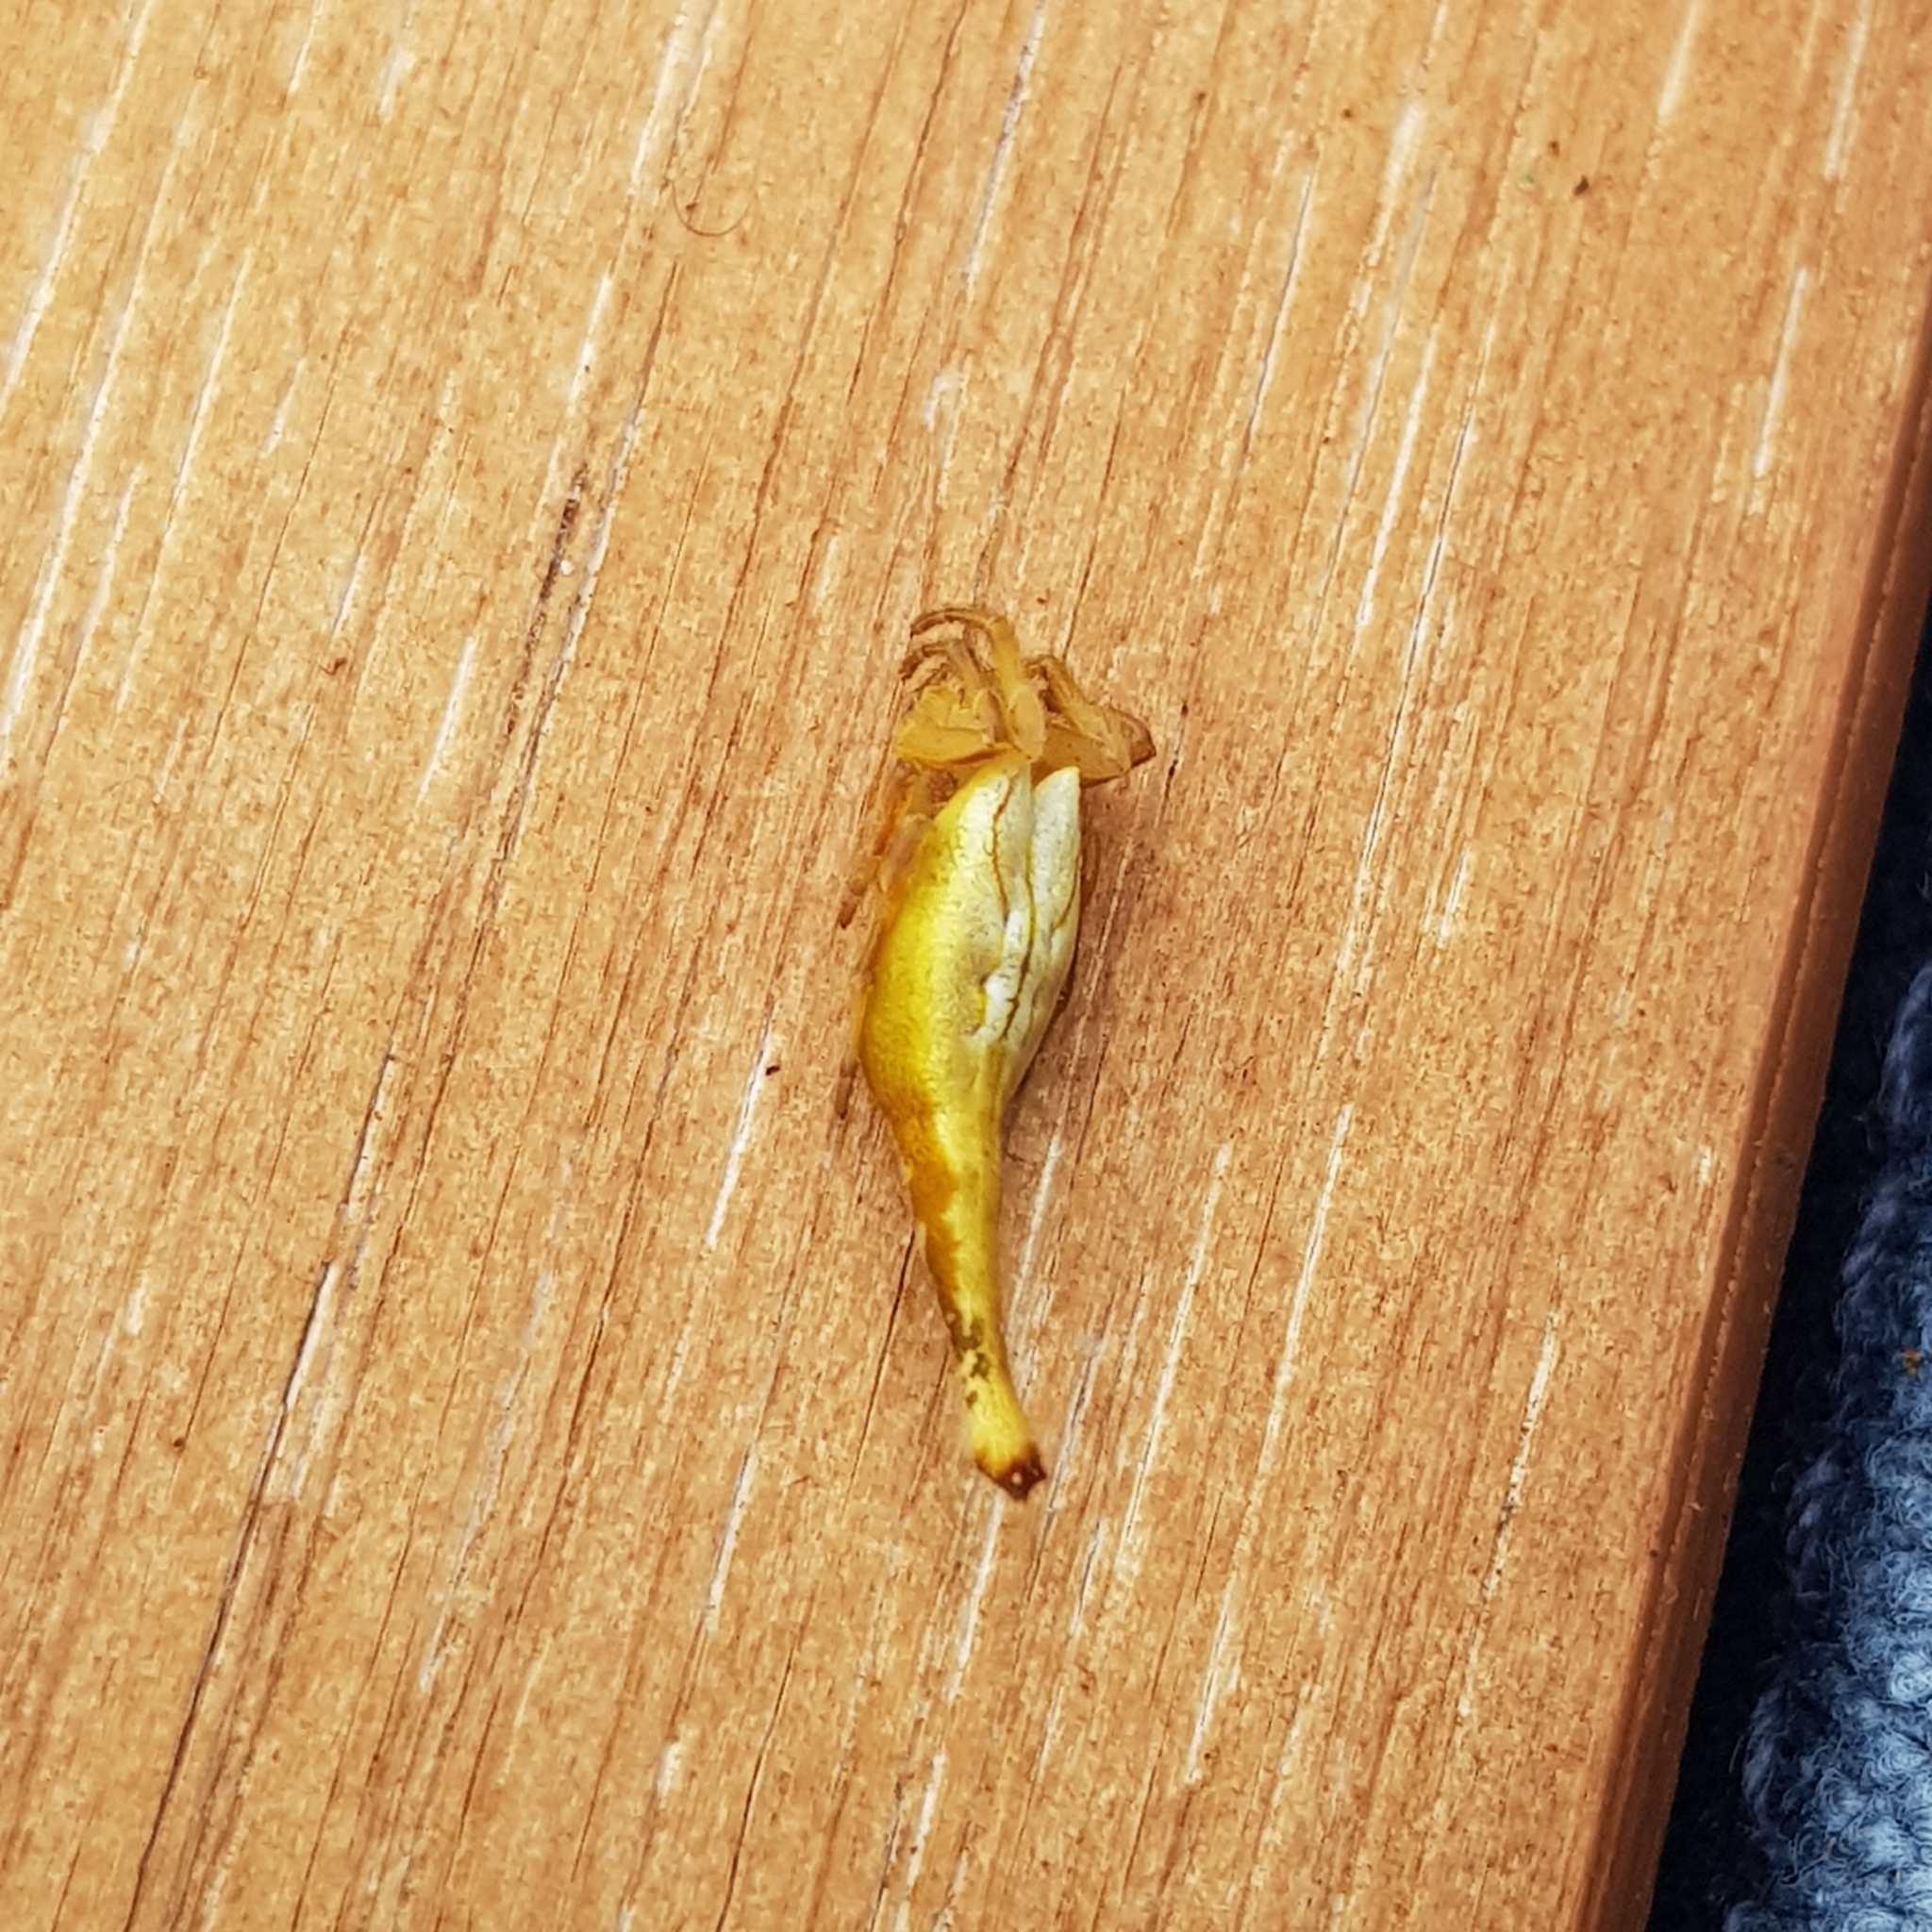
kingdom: Animalia
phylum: Arthropoda
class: Arachnida
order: Araneae
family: Araneidae
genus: Arachnura
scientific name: Arachnura feredayi
